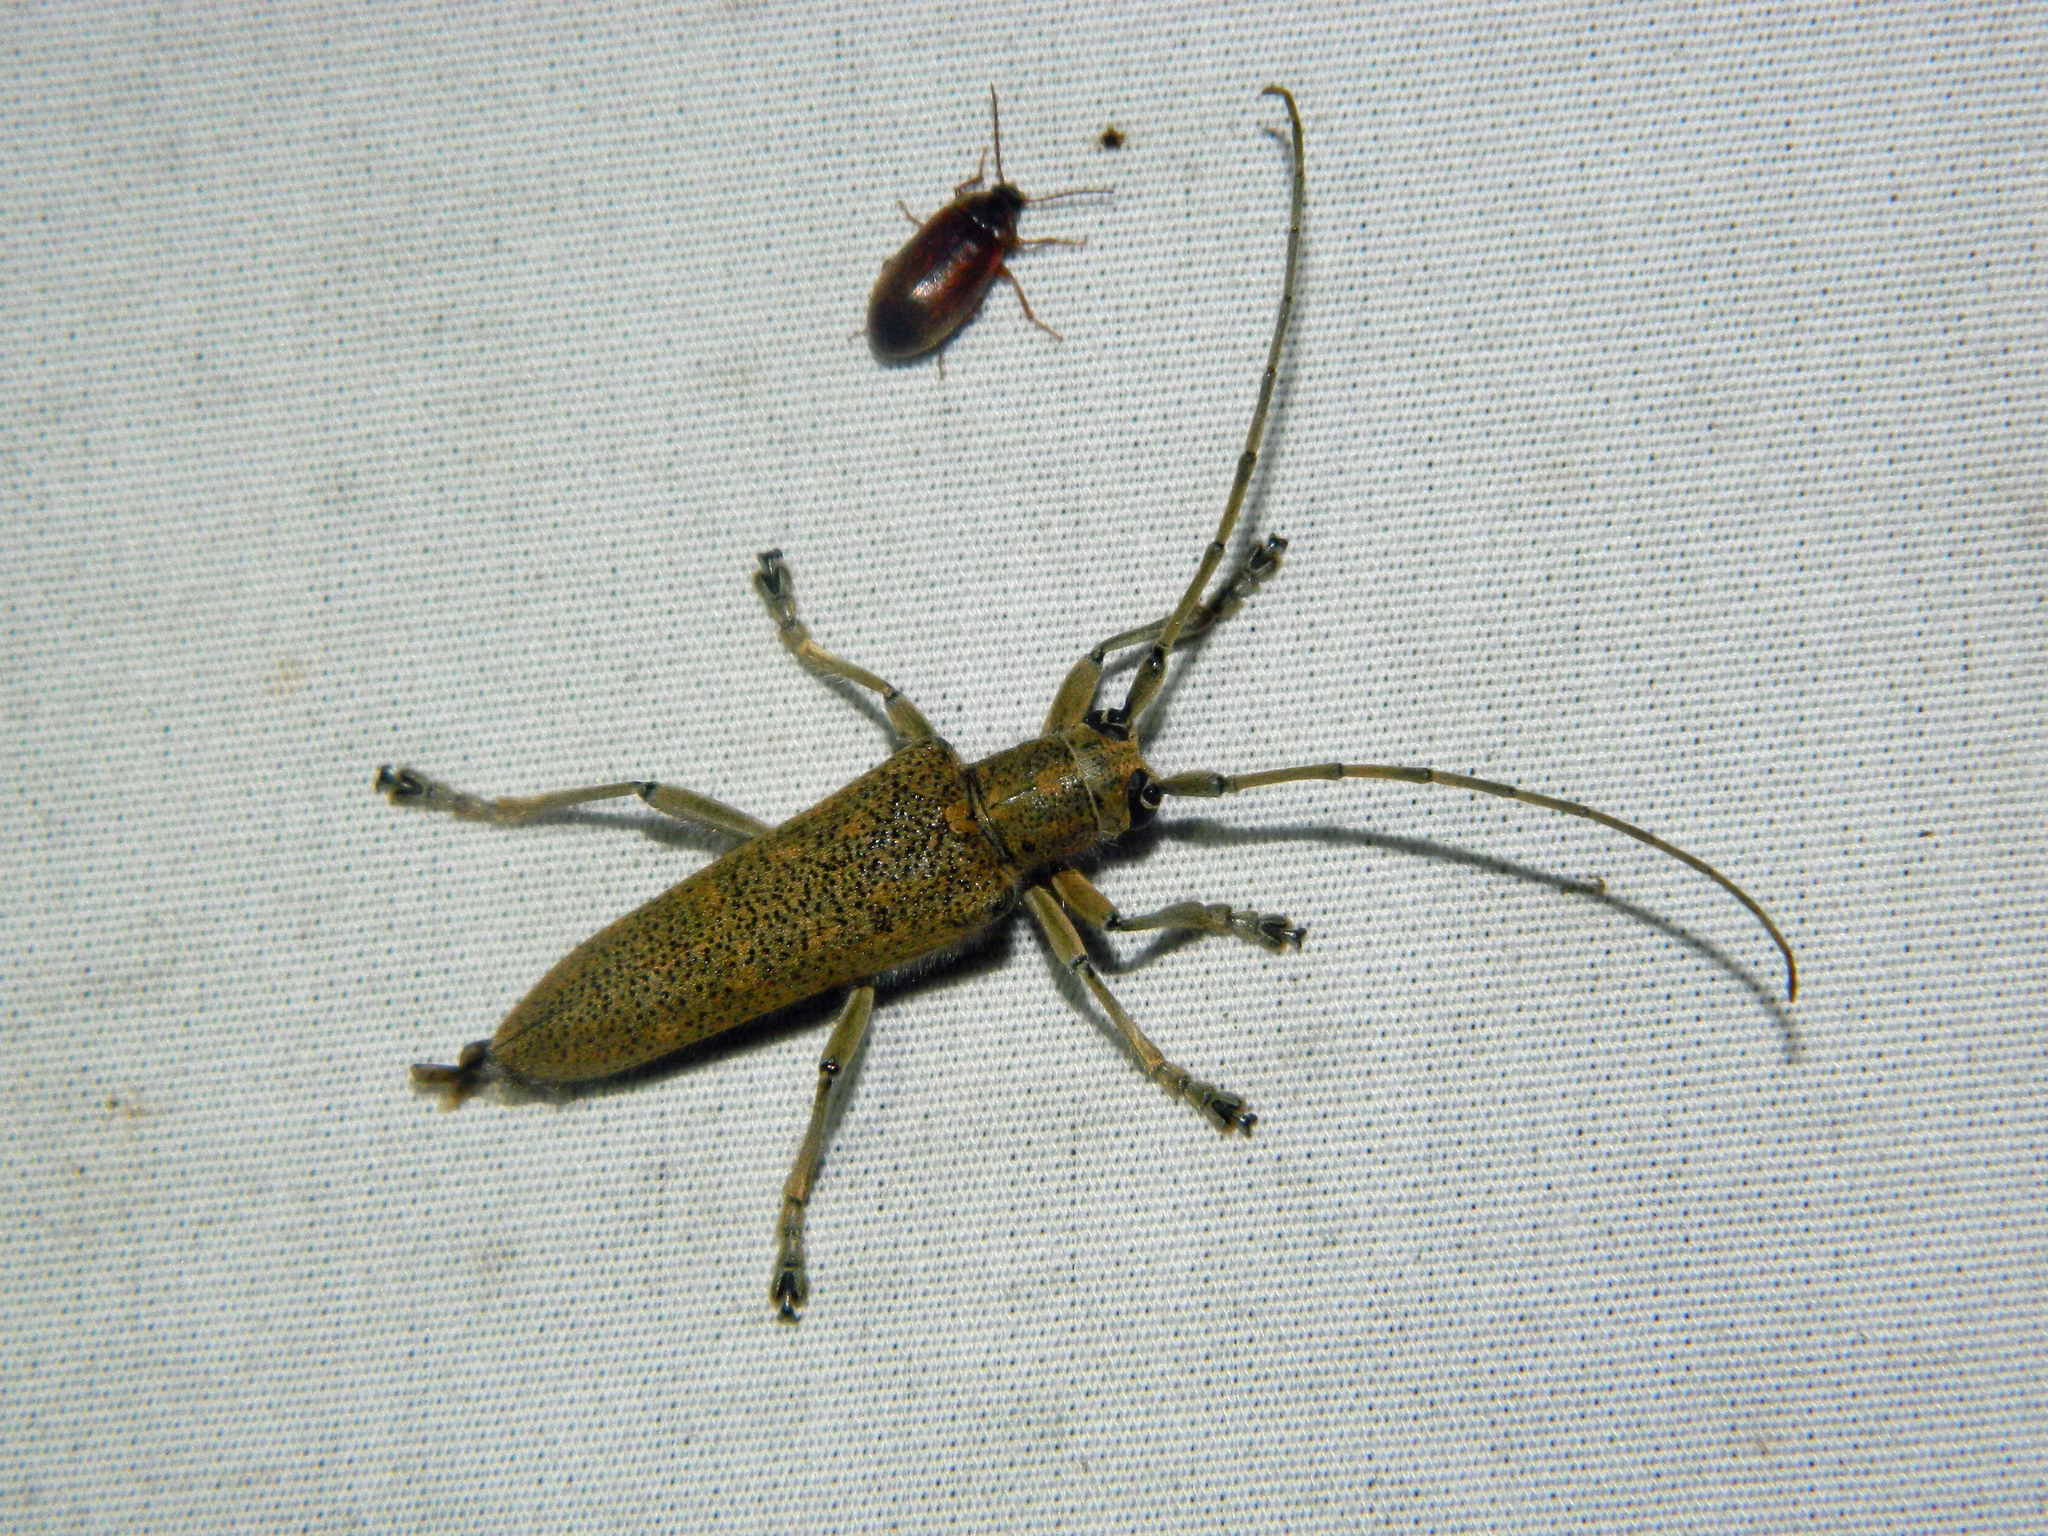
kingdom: Animalia
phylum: Arthropoda
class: Insecta
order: Coleoptera
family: Cerambycidae
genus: Saperda
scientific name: Saperda calcarata
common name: Poplar borer
